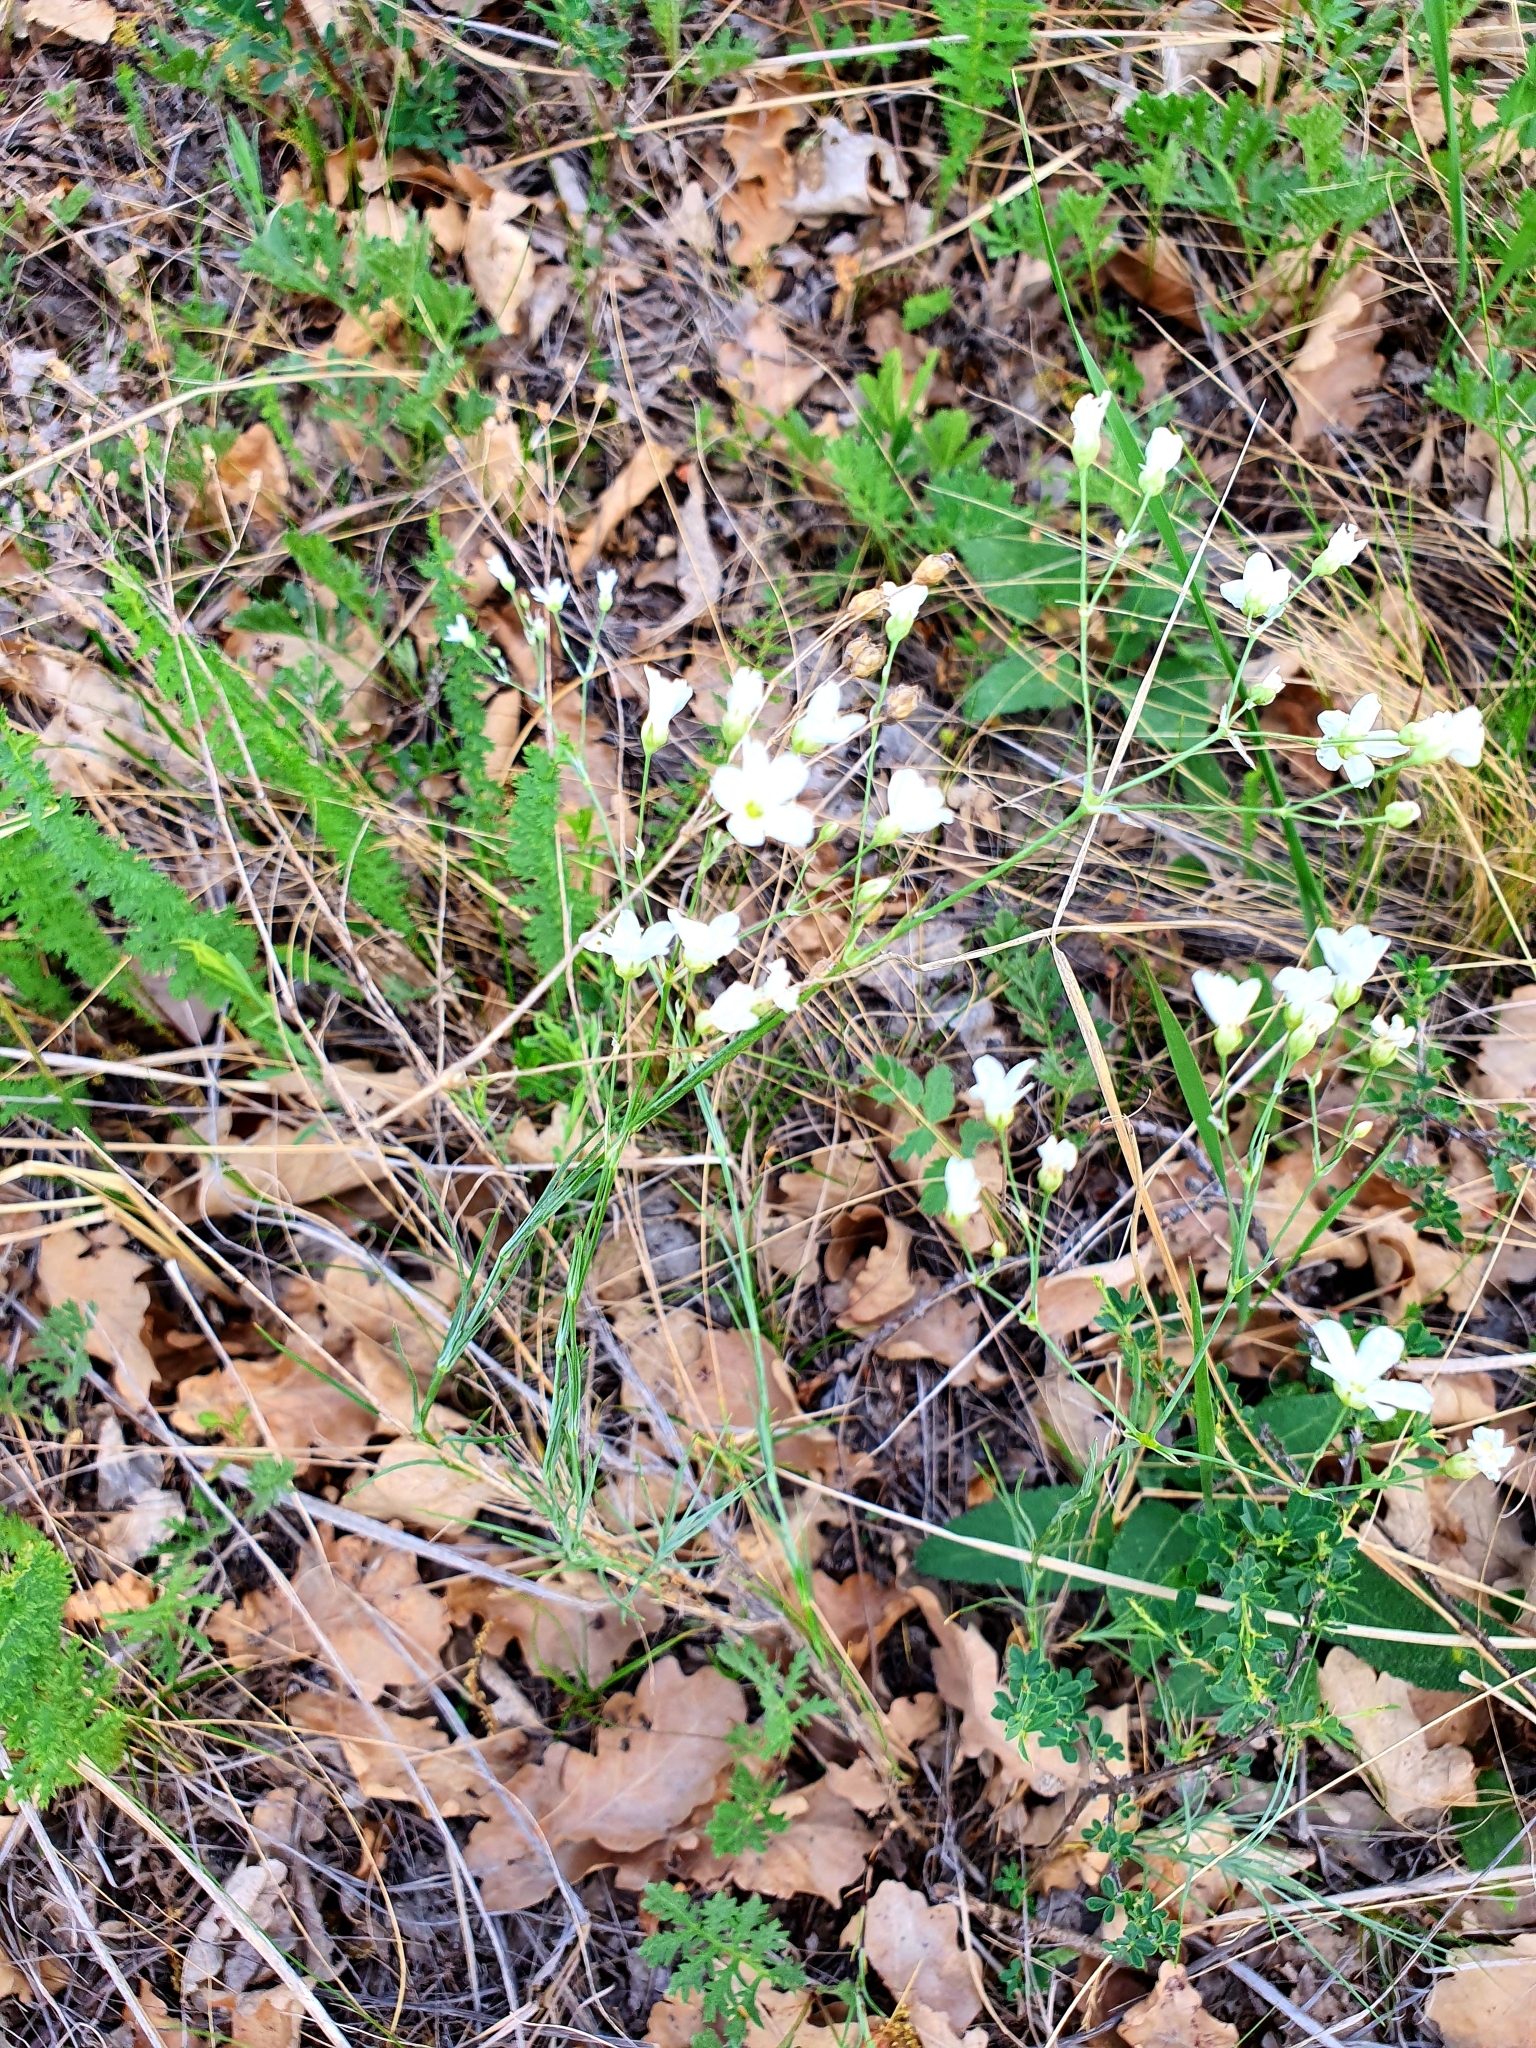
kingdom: Plantae
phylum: Tracheophyta
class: Magnoliopsida
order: Caryophyllales
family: Caryophyllaceae
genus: Eremogone
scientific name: Eremogone saxatilis
